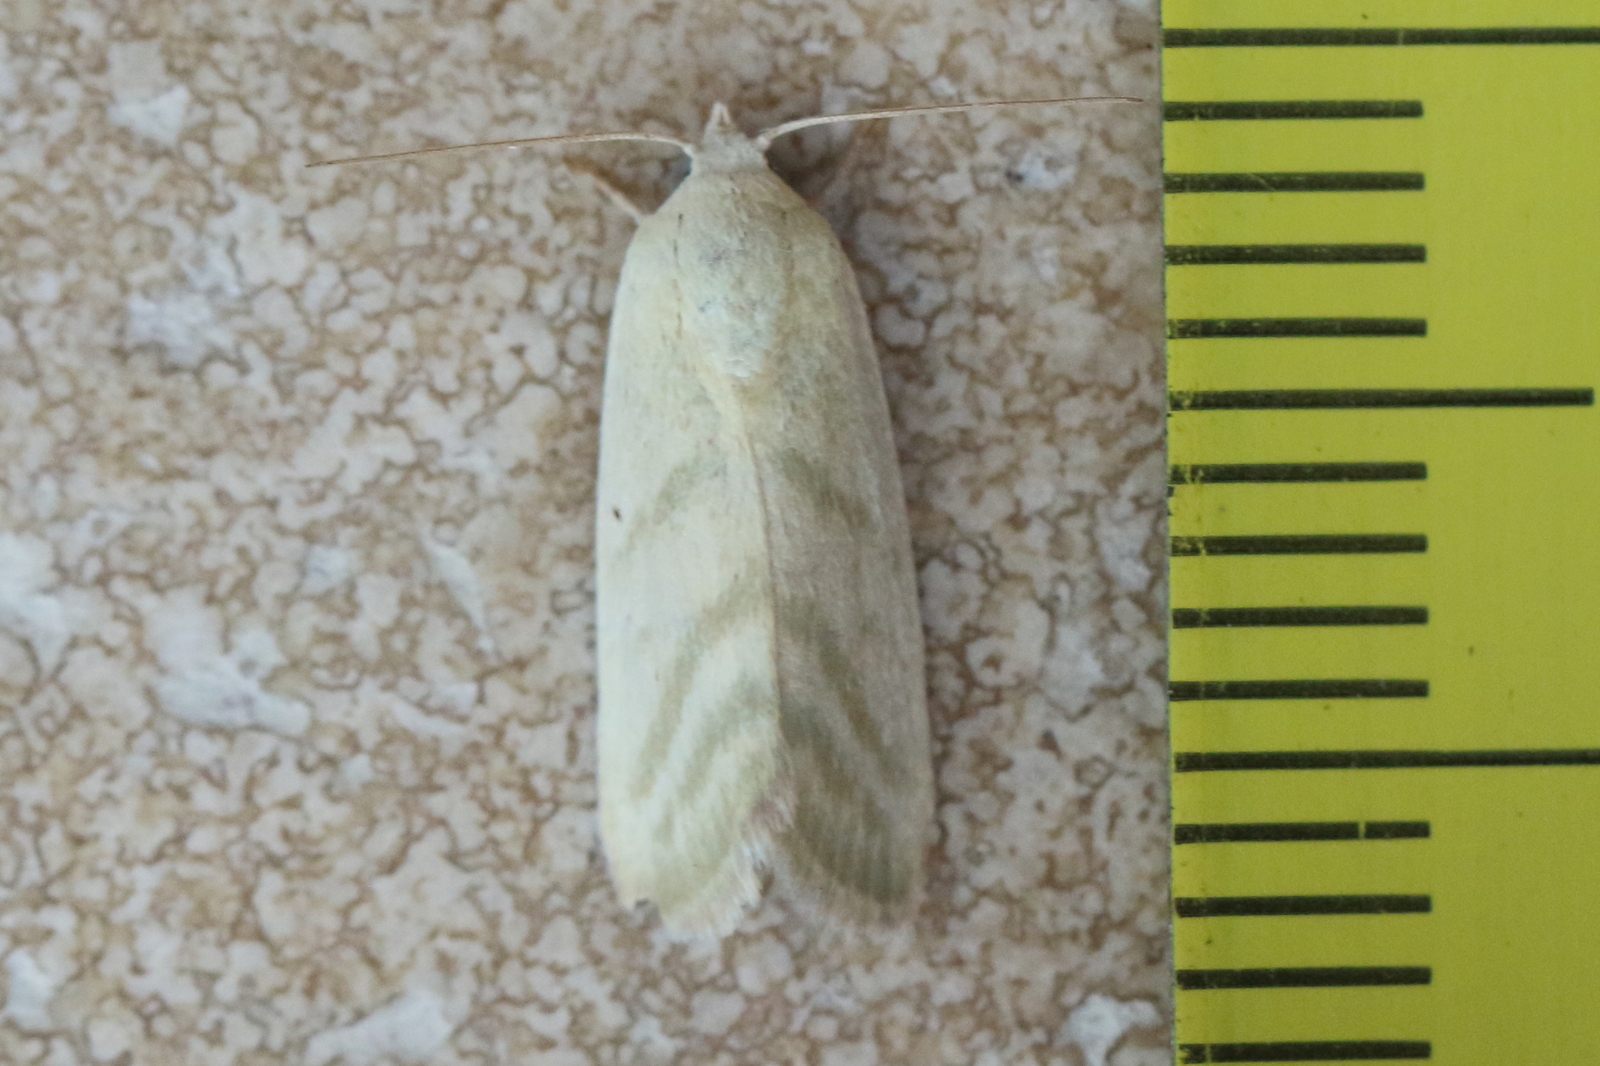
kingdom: Animalia
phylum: Arthropoda
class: Insecta
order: Lepidoptera
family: Nolidae
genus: Earias
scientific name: Earias paralella
